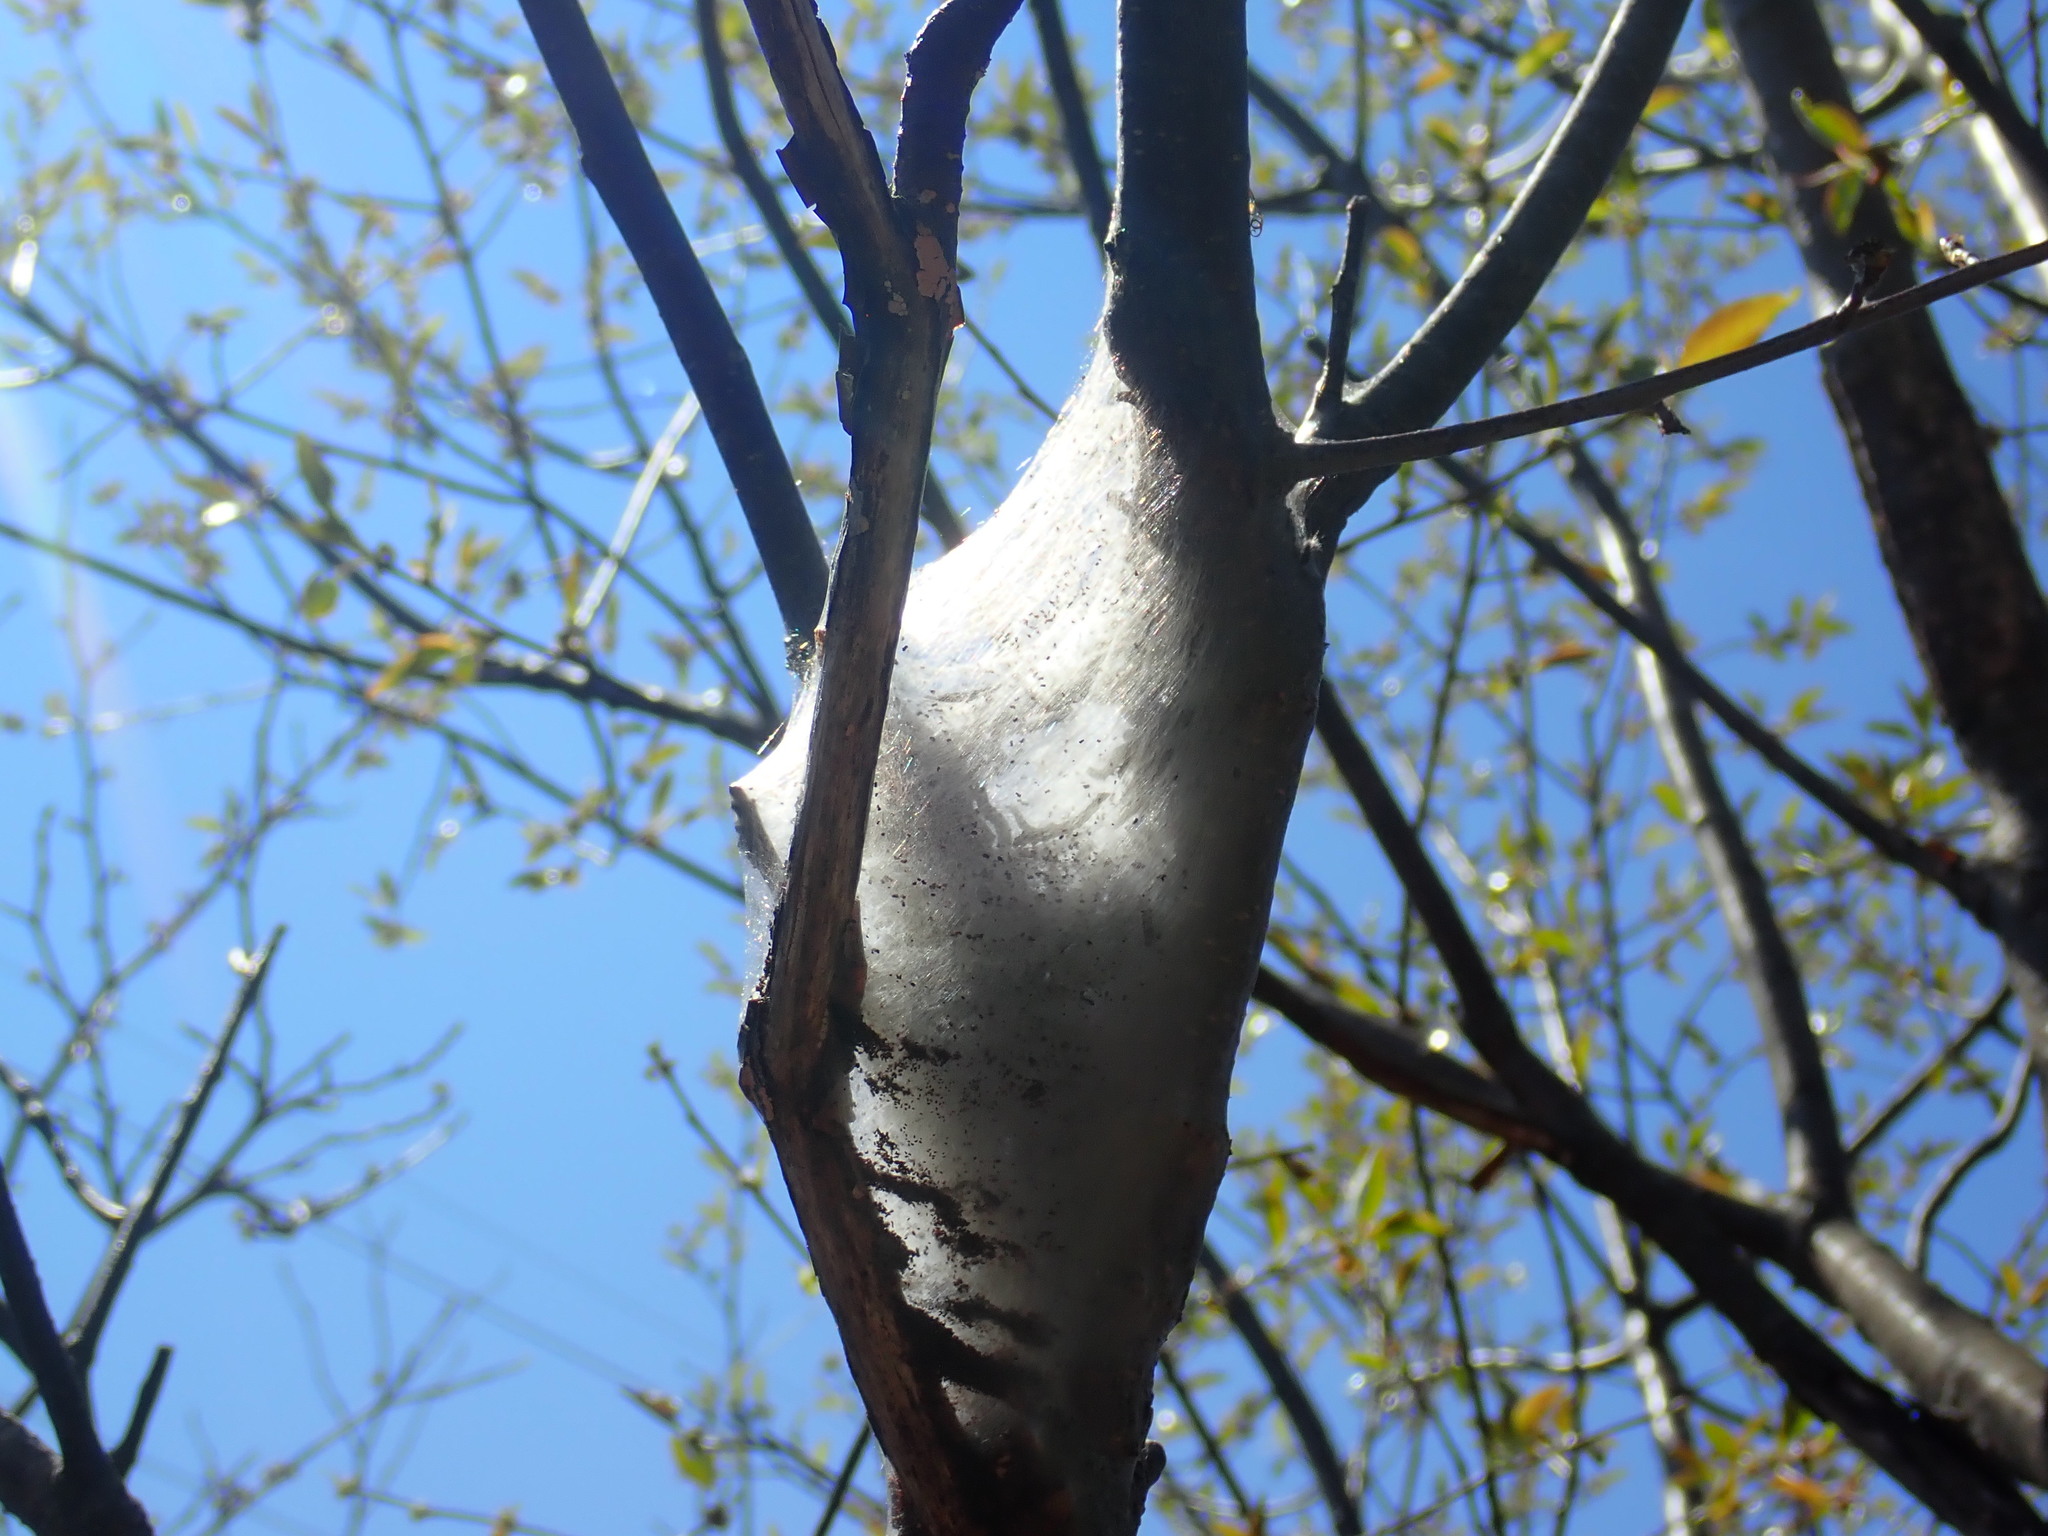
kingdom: Animalia
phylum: Arthropoda
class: Insecta
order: Lepidoptera
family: Lasiocampidae
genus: Malacosoma
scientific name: Malacosoma americana
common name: Eastern tent caterpillar moth
